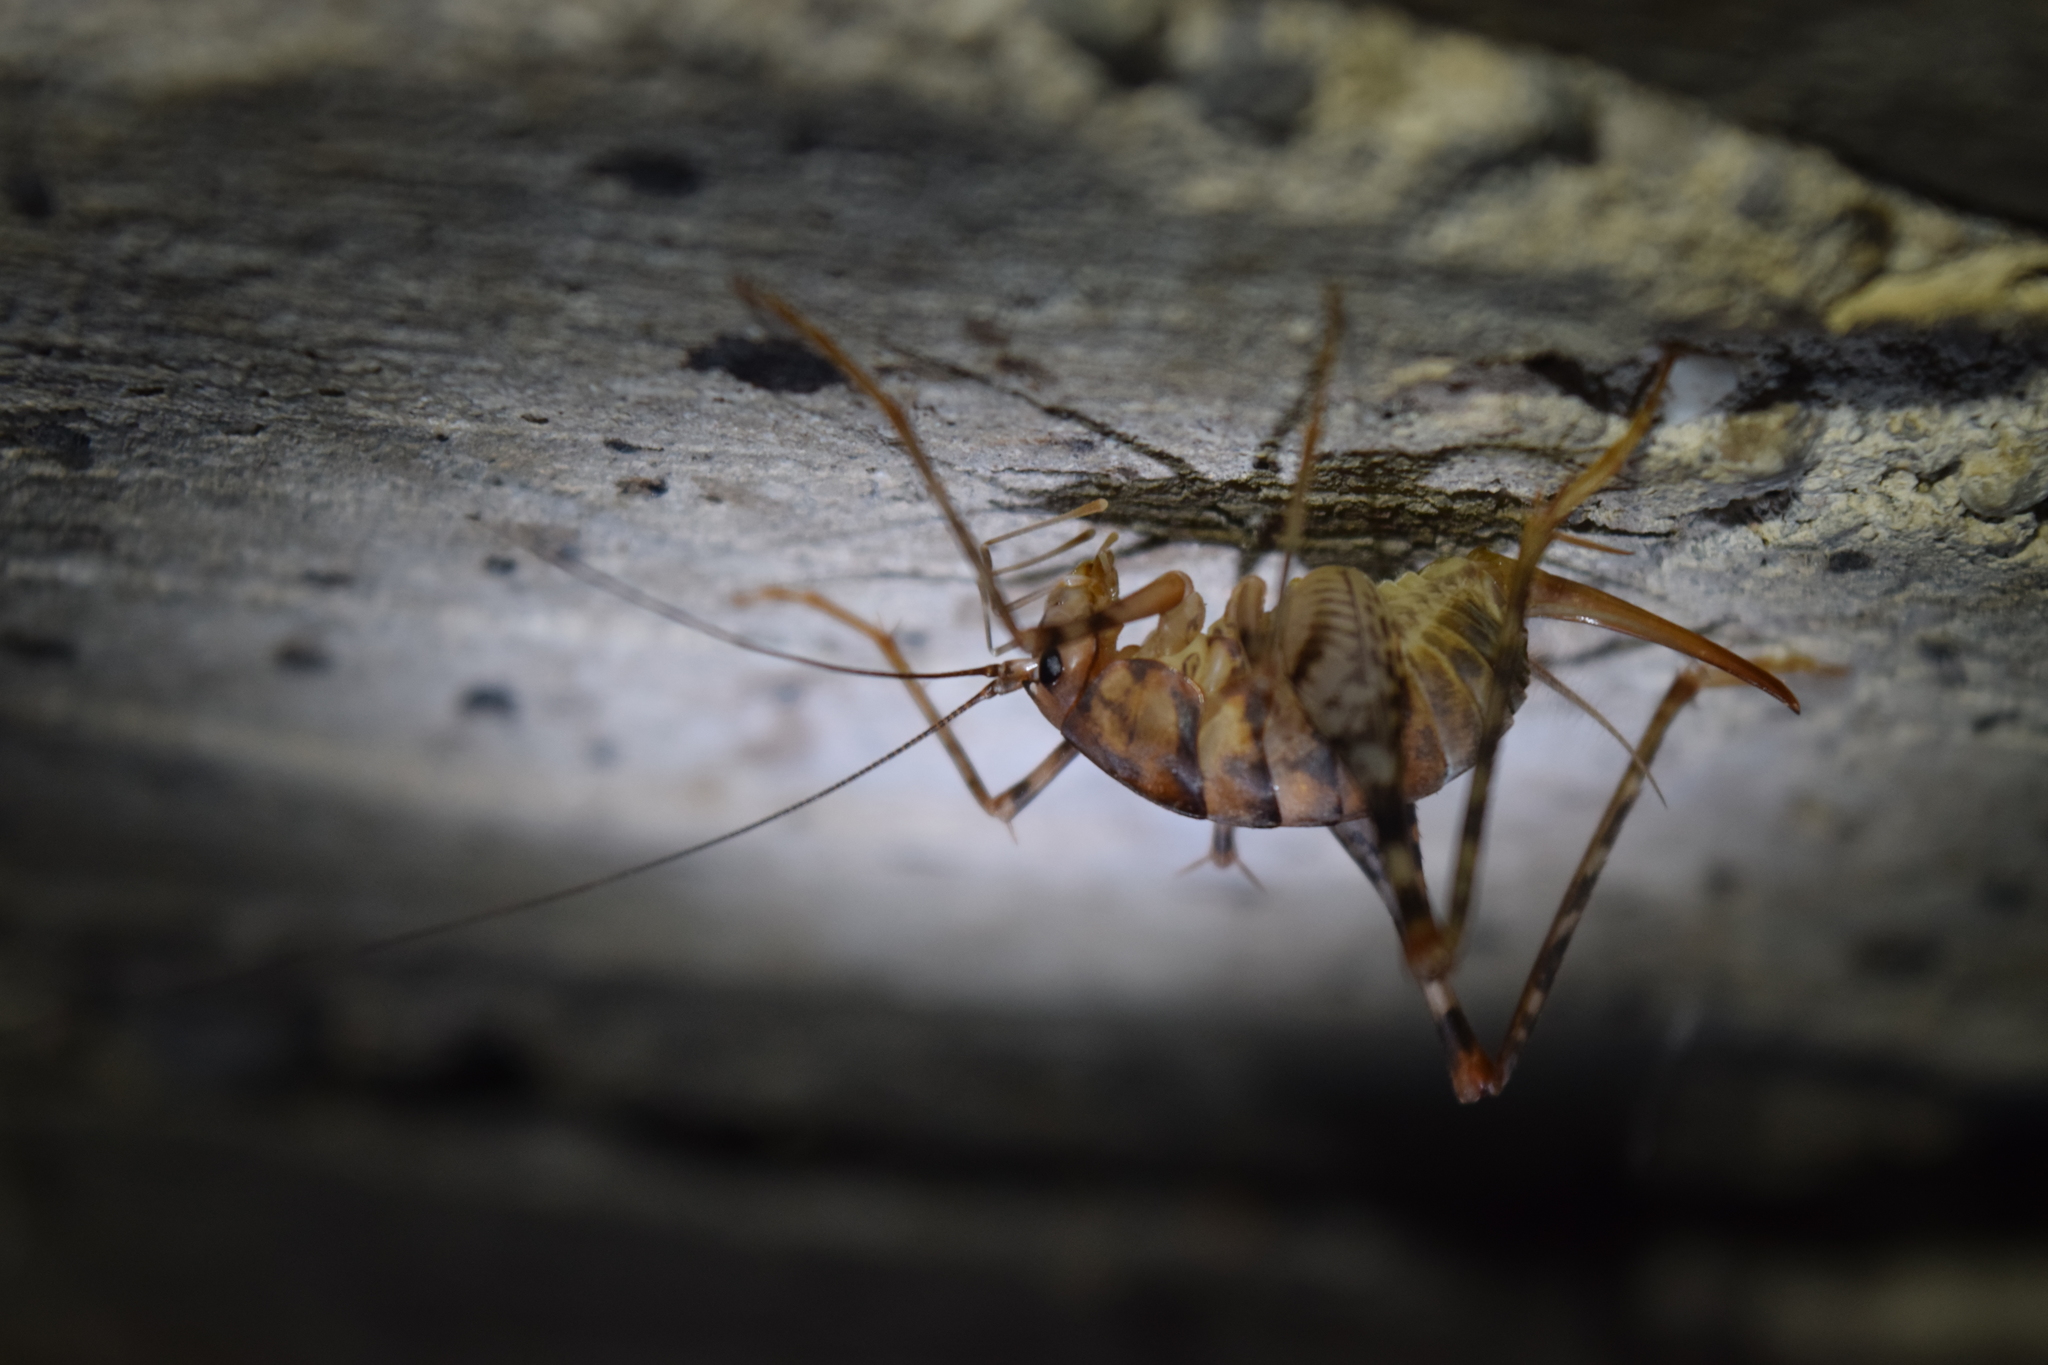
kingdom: Animalia
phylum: Arthropoda
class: Insecta
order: Orthoptera
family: Rhaphidophoridae
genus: Tachycines
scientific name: Tachycines asynamorus
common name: Greenhouse camel cricket
